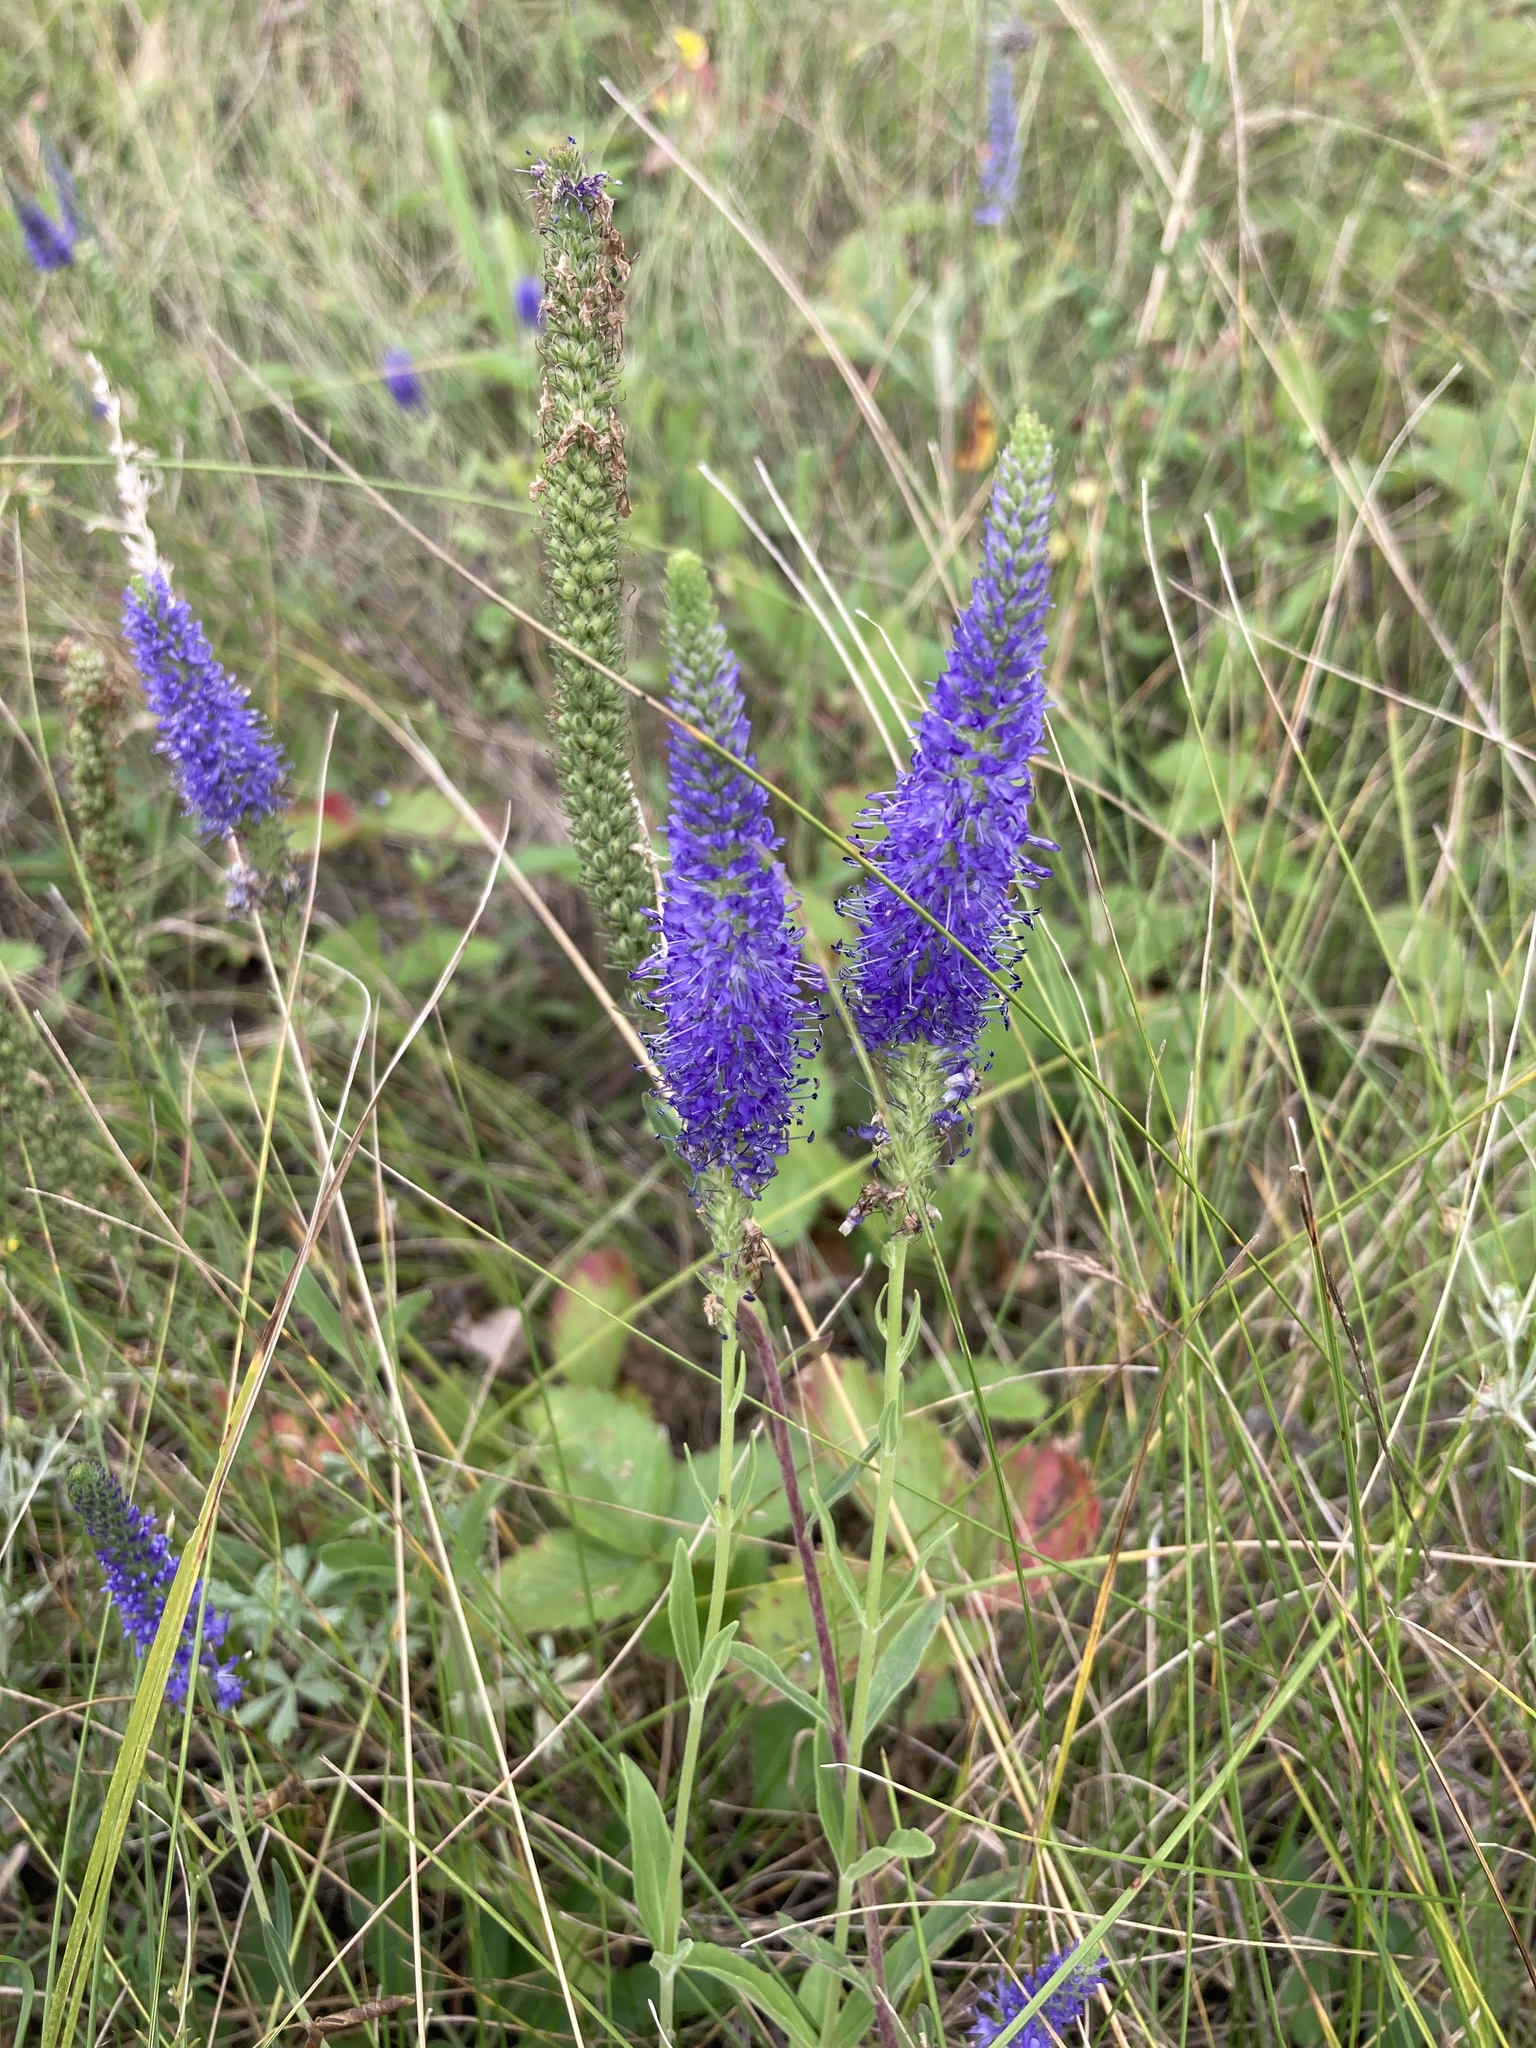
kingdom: Plantae
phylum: Tracheophyta
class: Magnoliopsida
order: Lamiales
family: Plantaginaceae
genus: Veronica
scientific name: Veronica spicata
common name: Spiked speedwell
